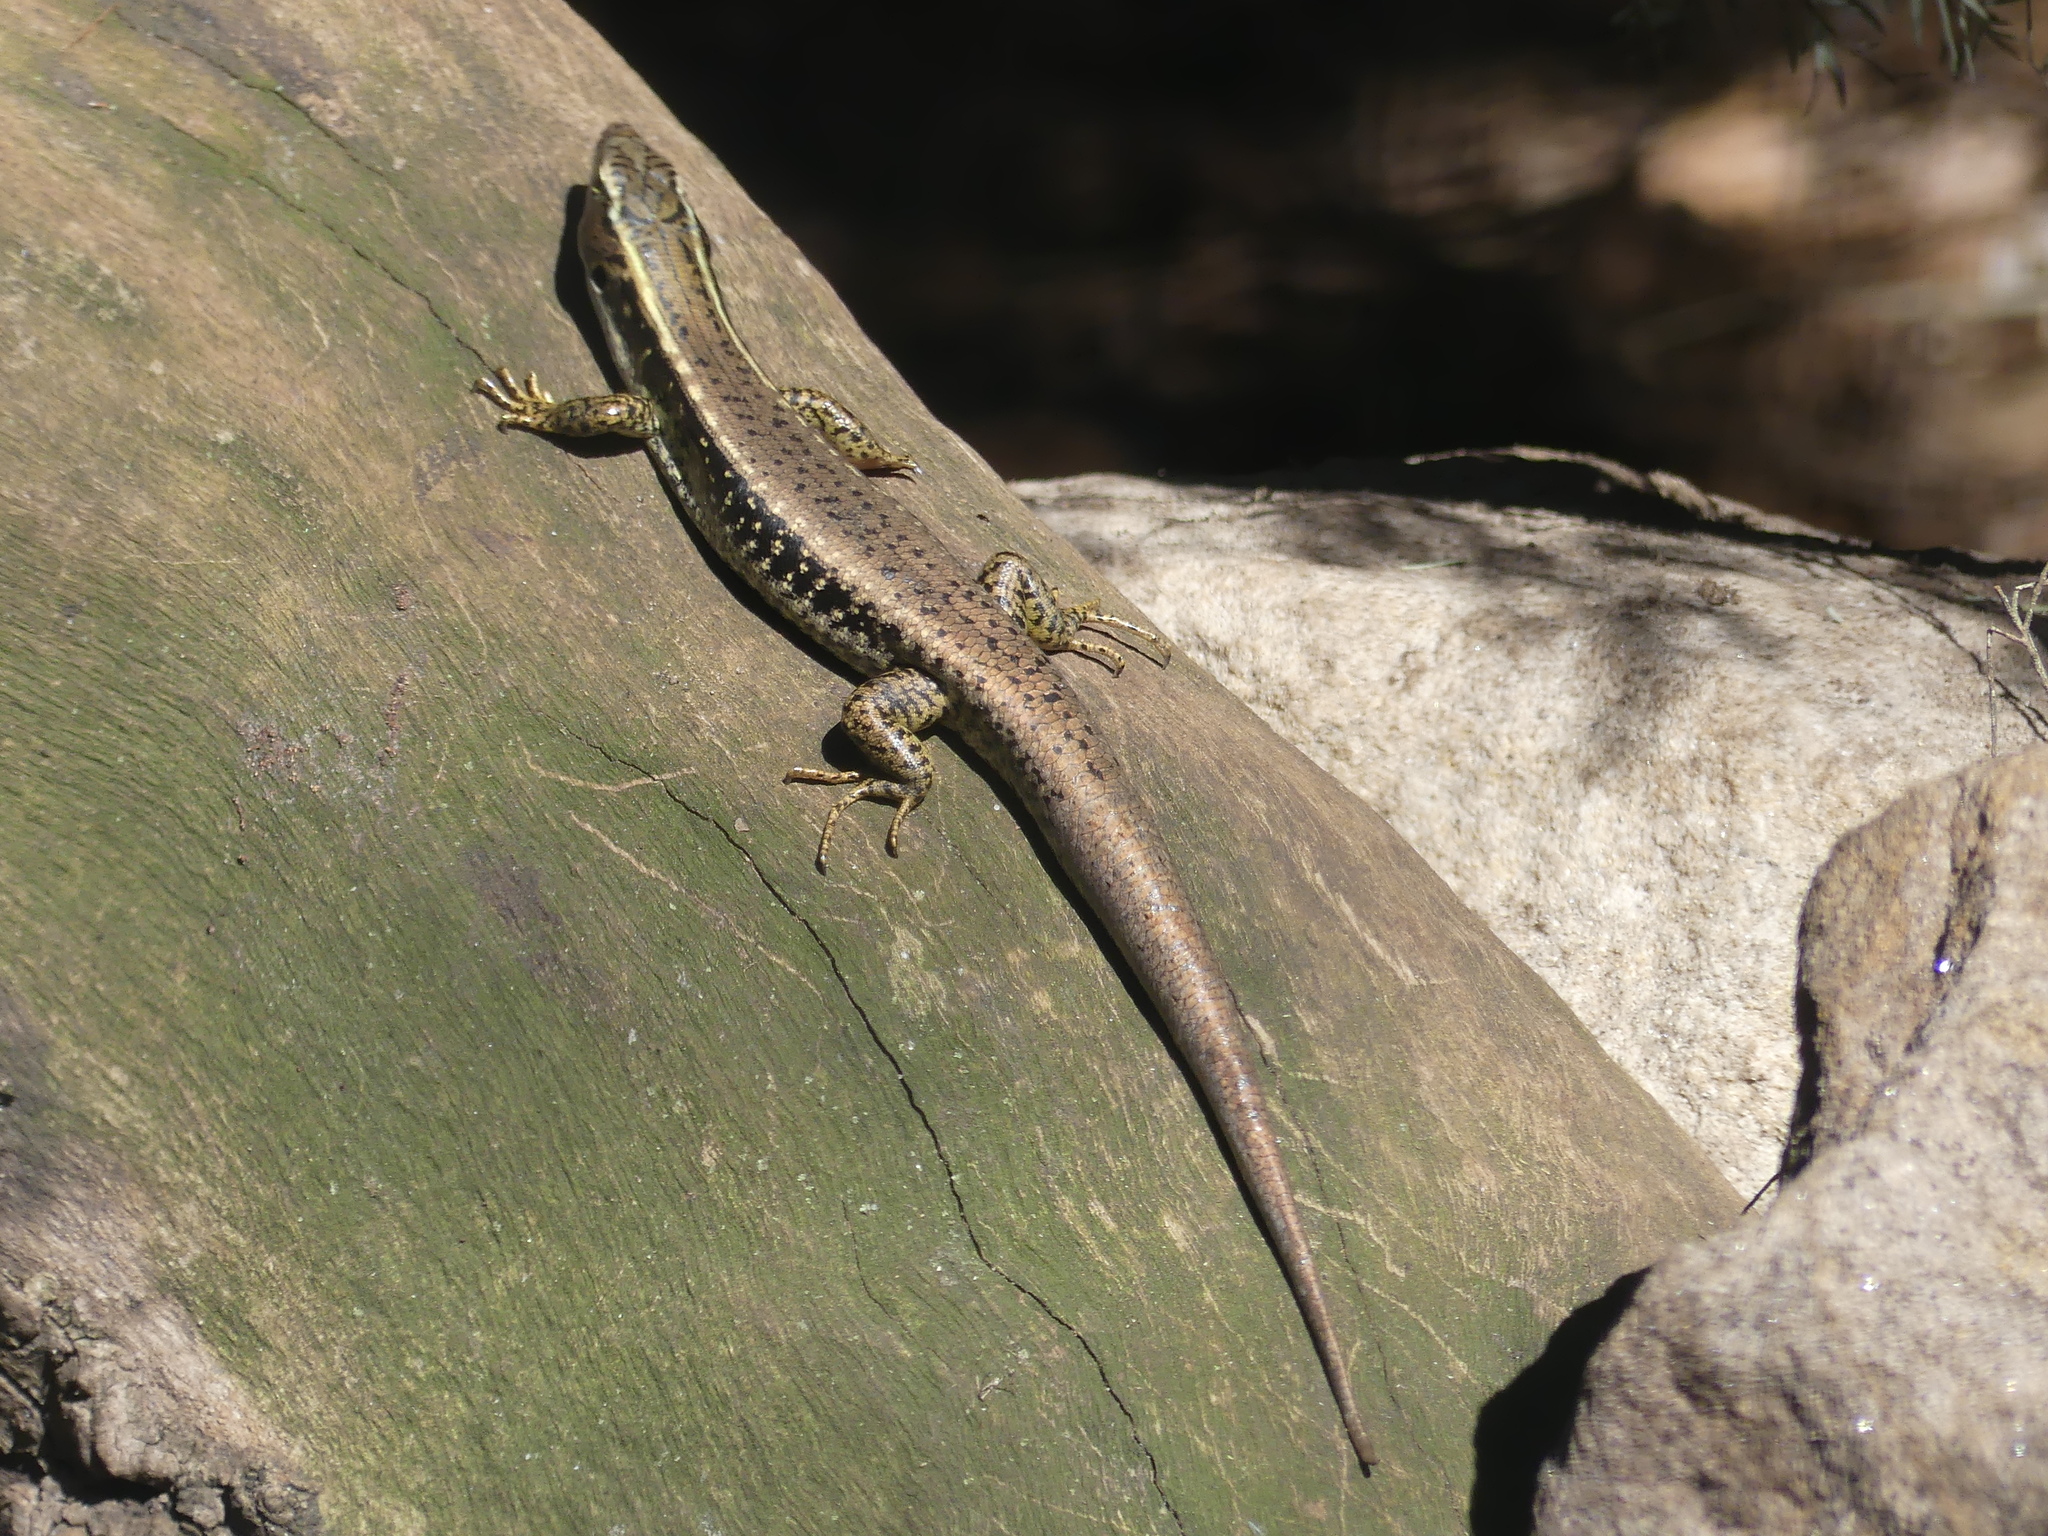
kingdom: Animalia
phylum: Chordata
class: Squamata
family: Scincidae
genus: Eulamprus
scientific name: Eulamprus quoyii
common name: Eastern water skink
